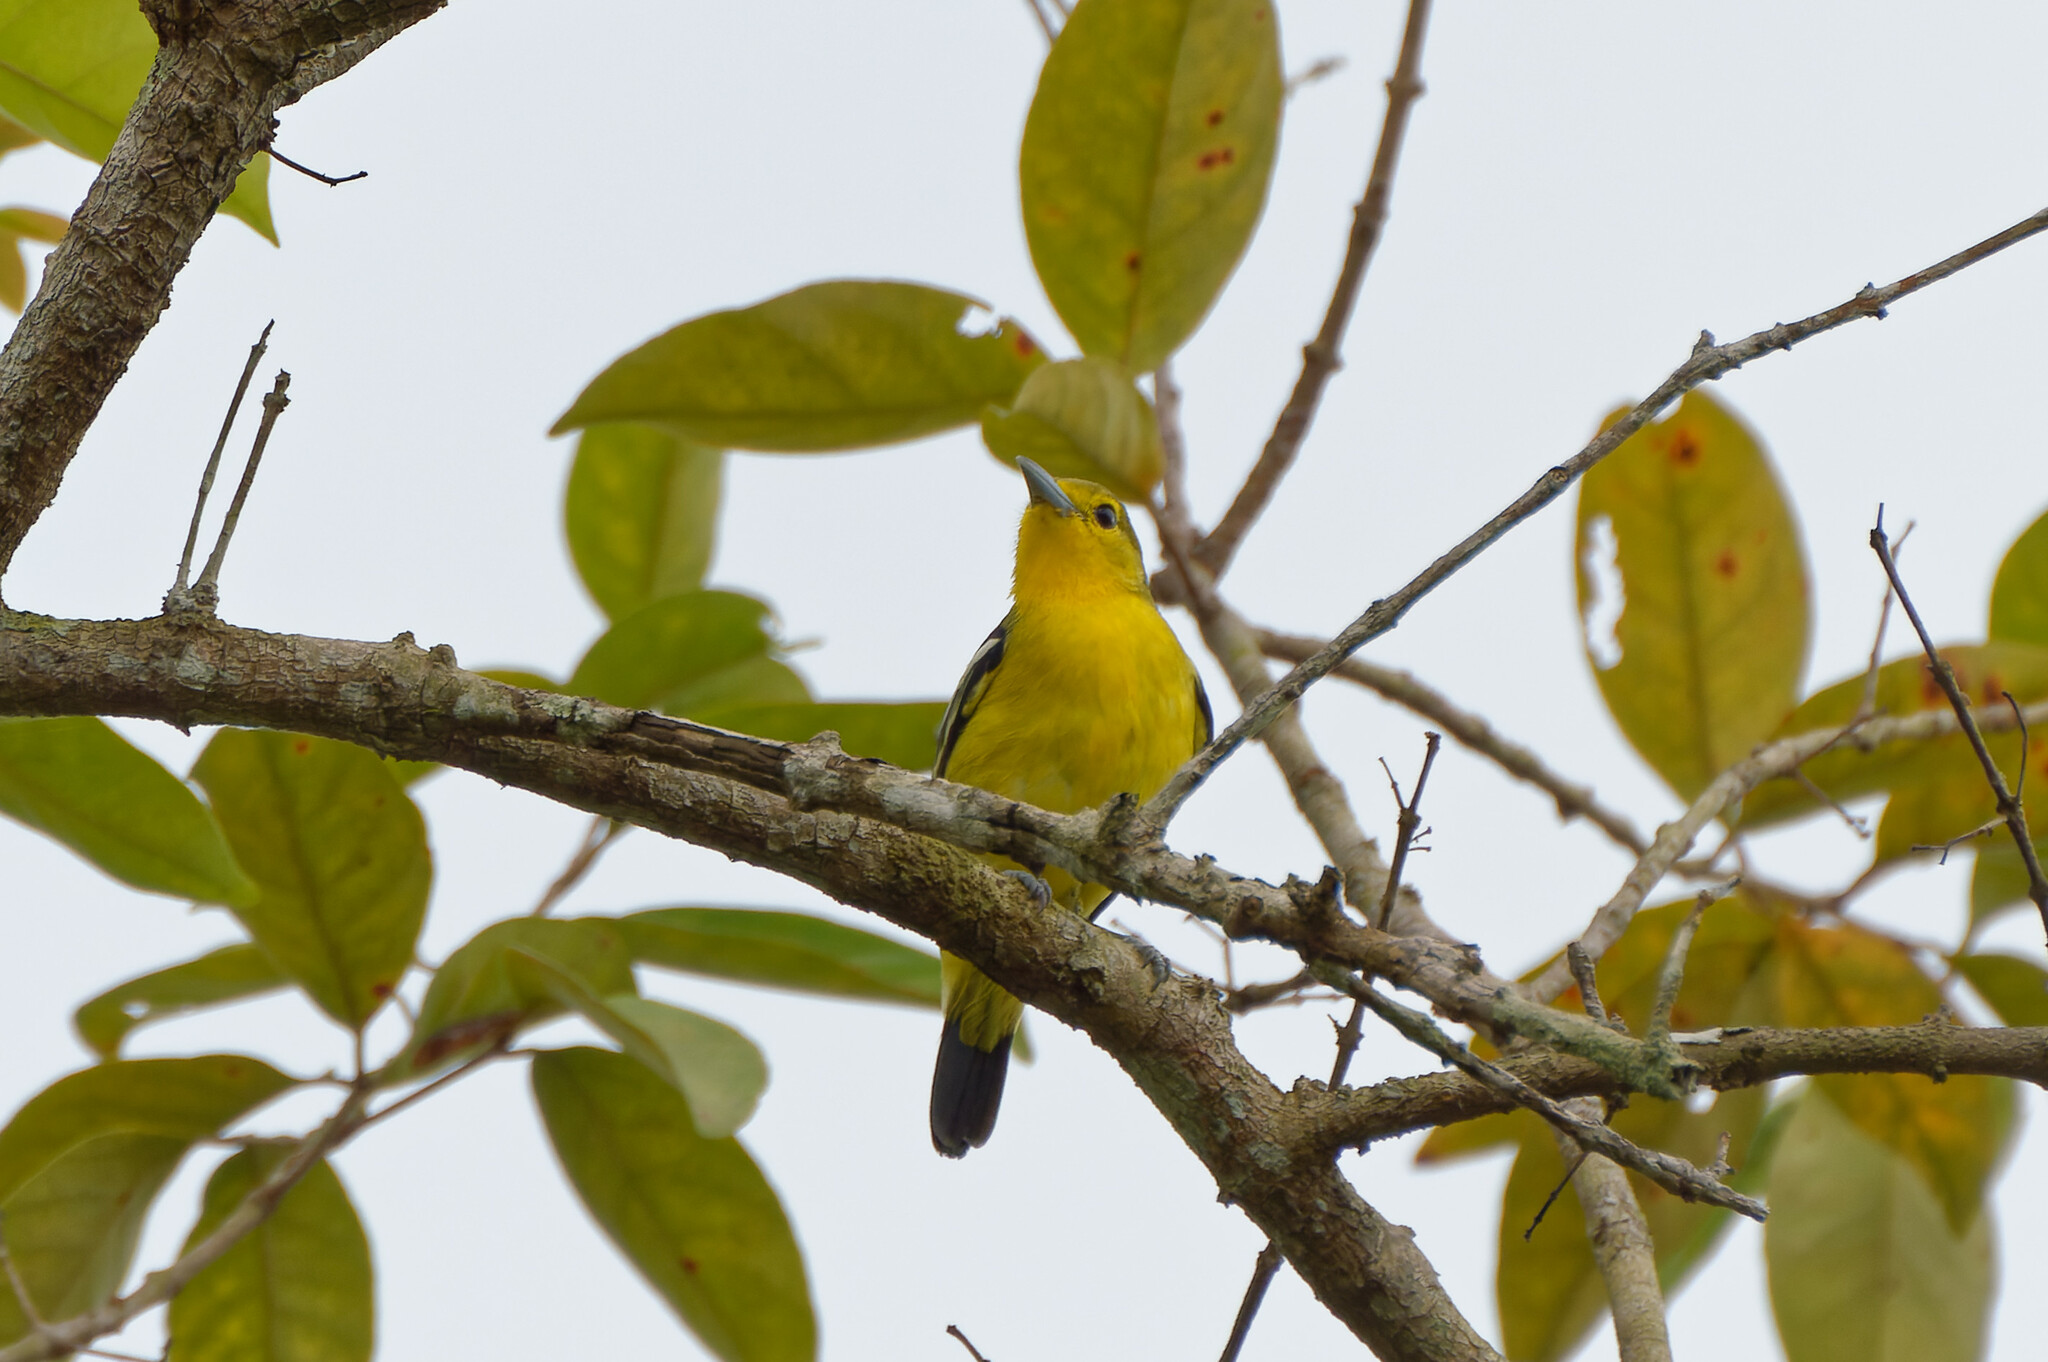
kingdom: Animalia
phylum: Chordata
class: Aves
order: Passeriformes
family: Aegithinidae
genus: Aegithina
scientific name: Aegithina tiphia
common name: Common iora
